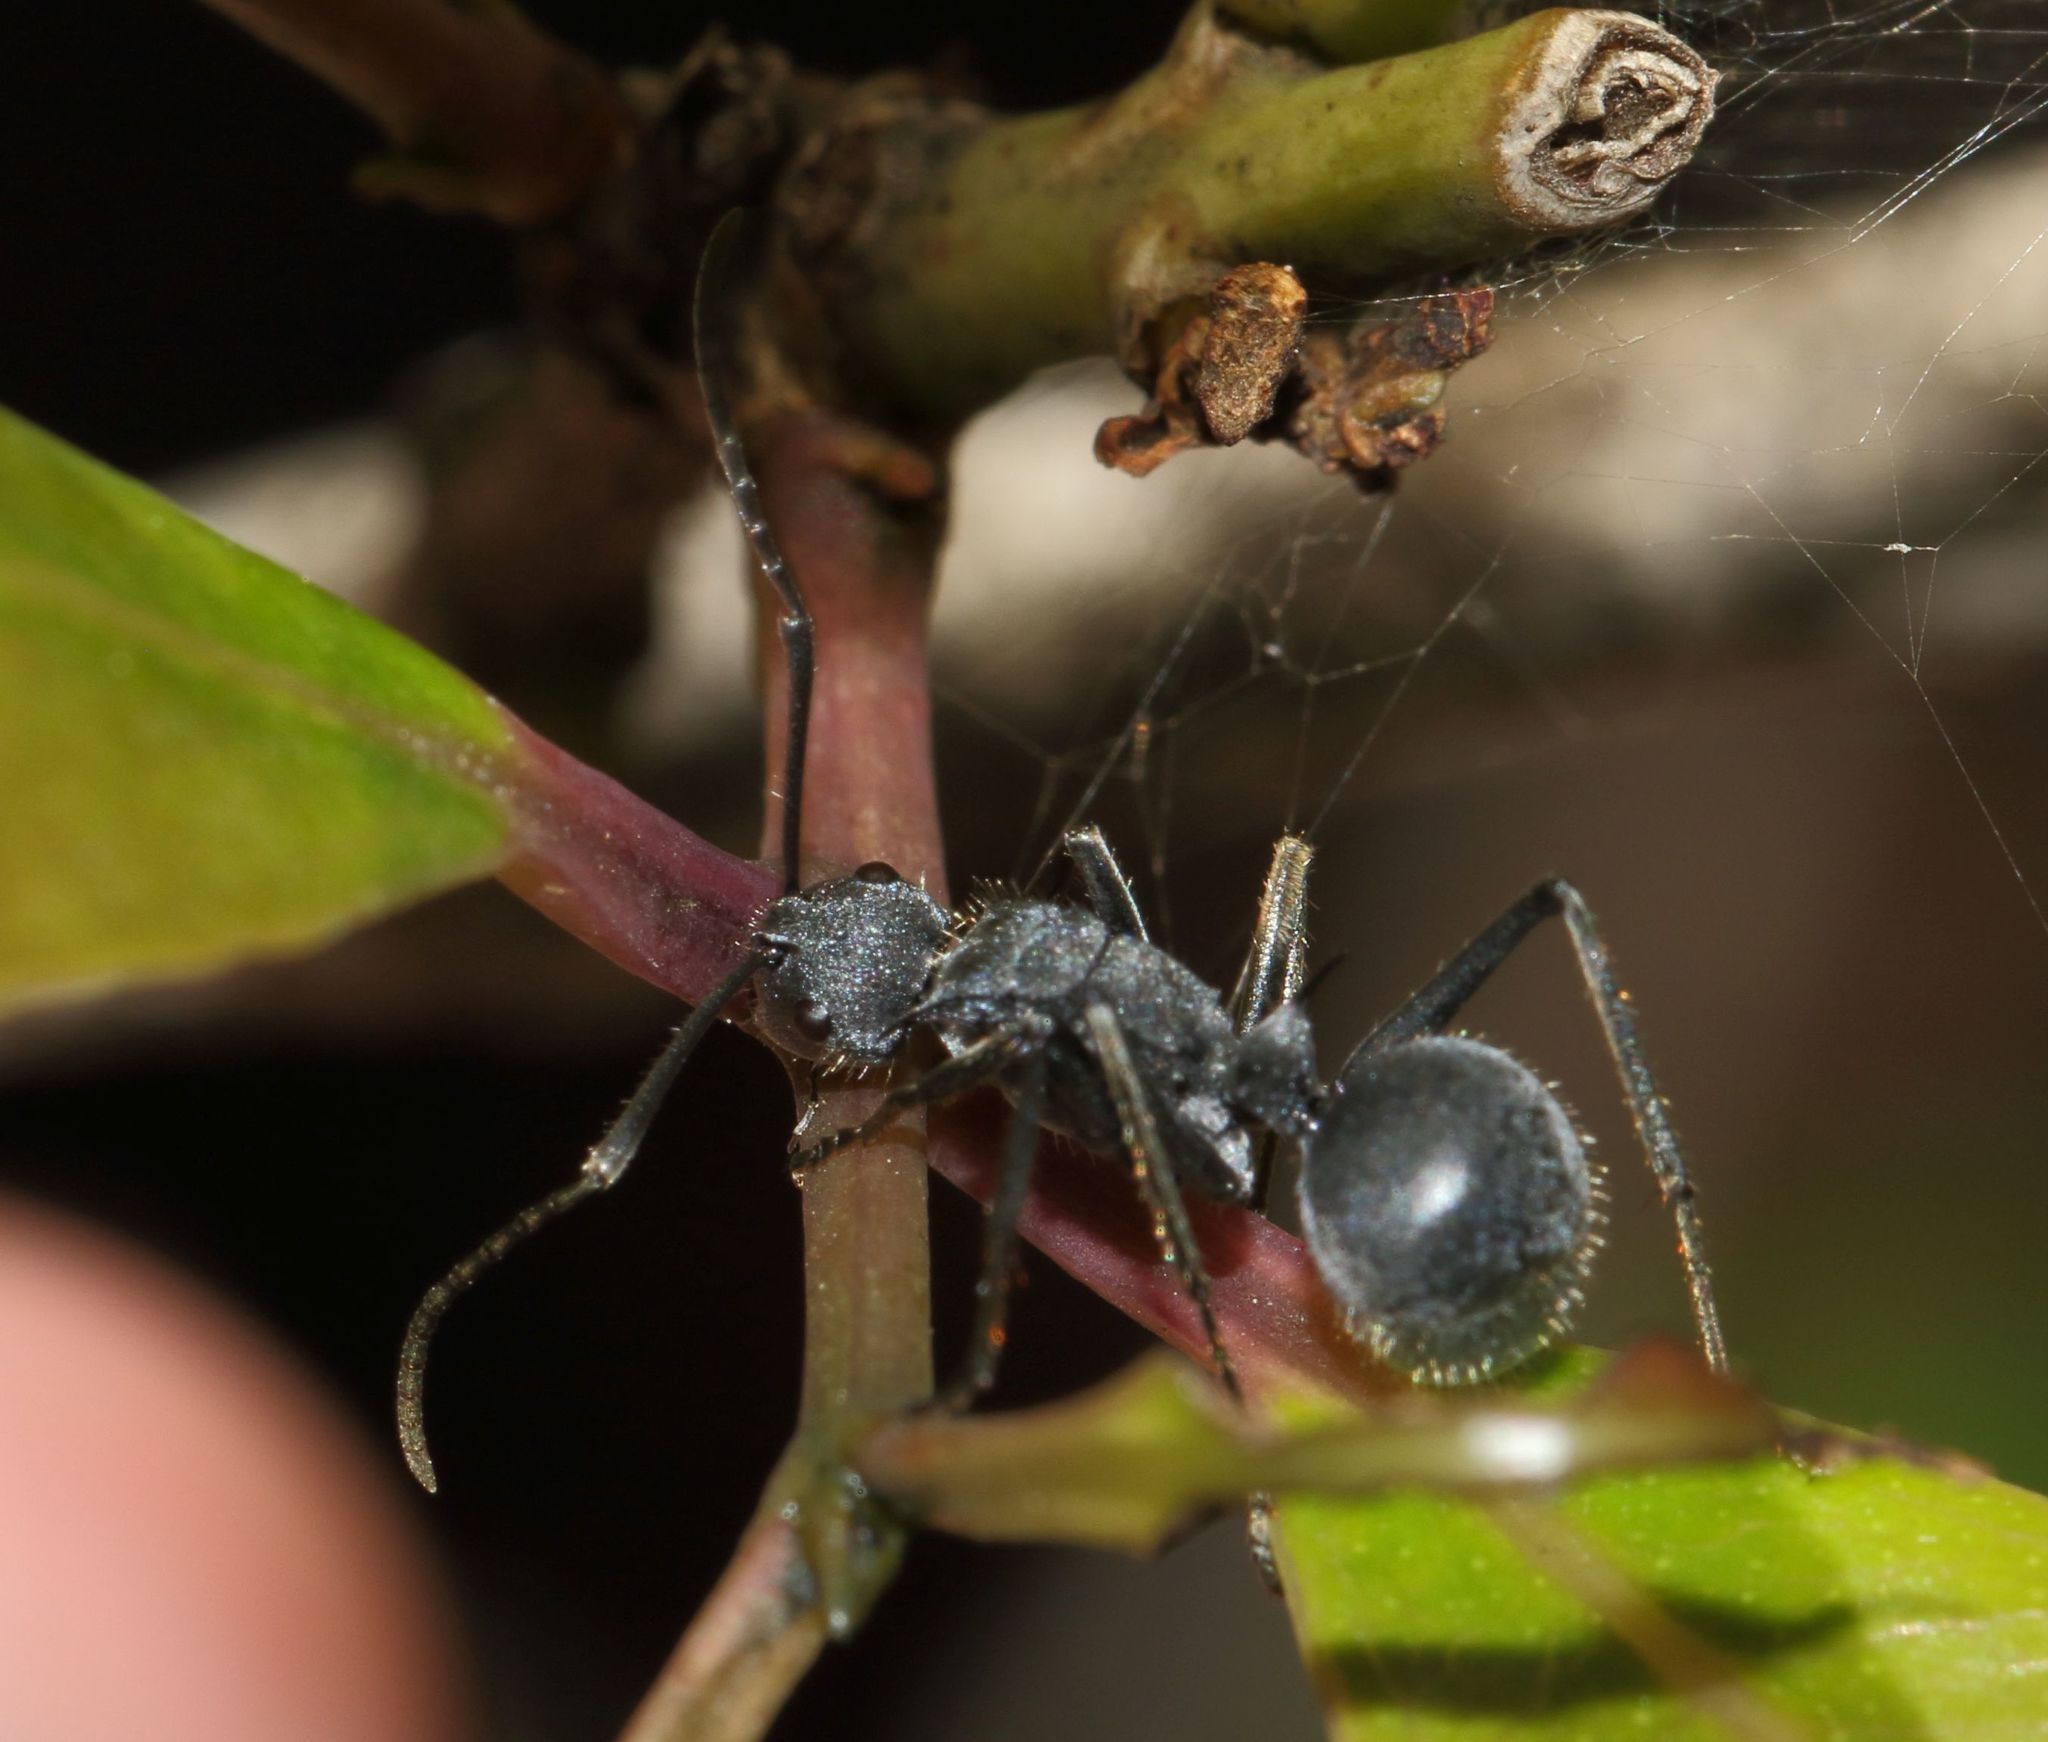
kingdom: Animalia
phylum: Arthropoda
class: Insecta
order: Hymenoptera
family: Formicidae
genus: Polyrhachis
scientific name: Polyrhachis schistacea
